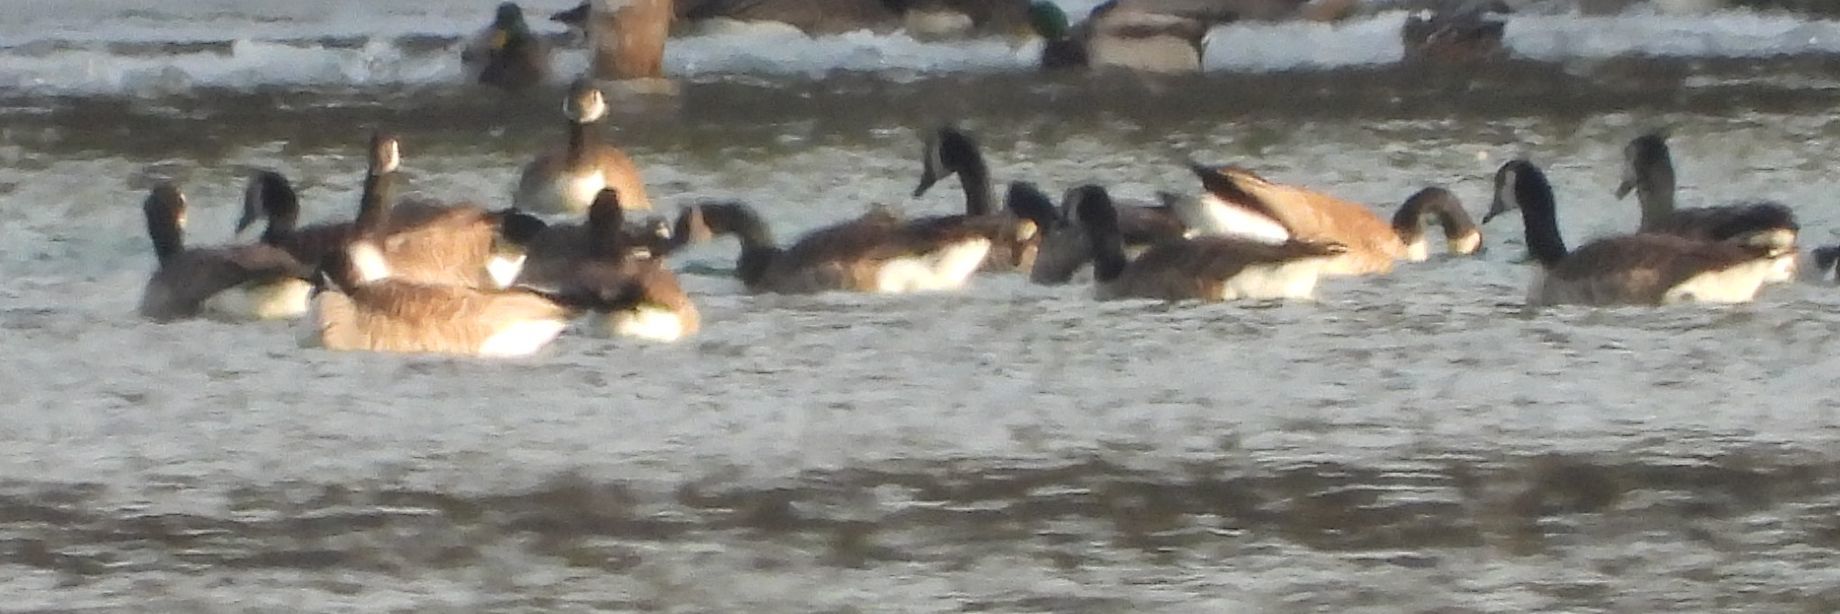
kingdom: Animalia
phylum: Chordata
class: Aves
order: Anseriformes
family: Anatidae
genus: Branta
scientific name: Branta canadensis
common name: Canada goose
